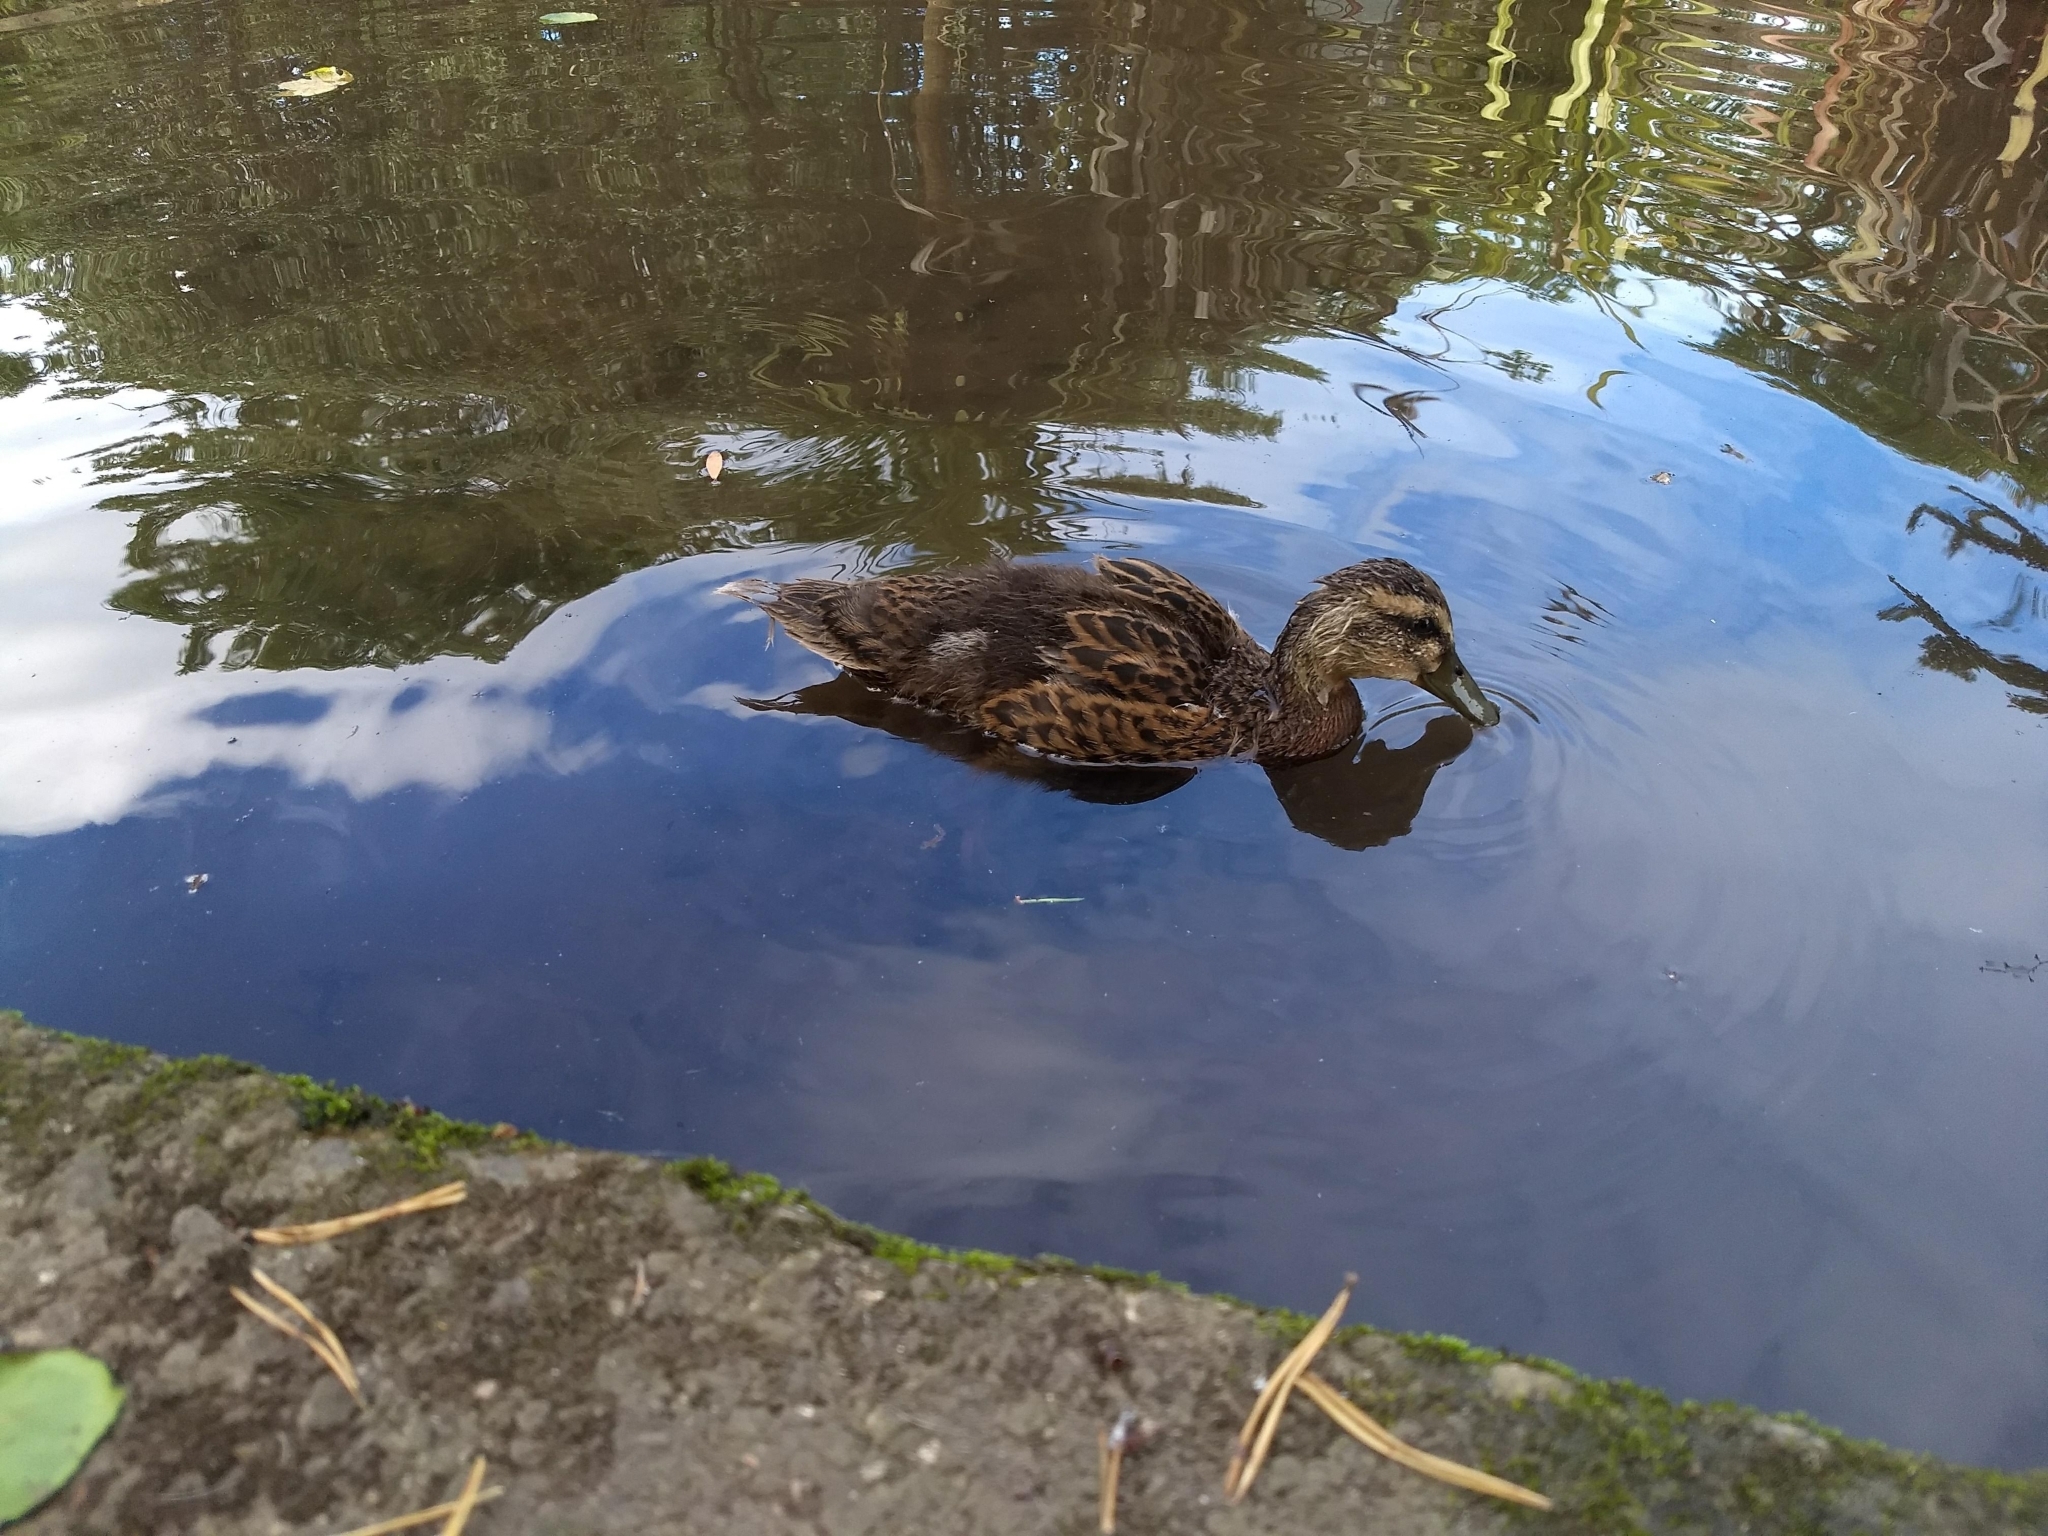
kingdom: Animalia
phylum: Chordata
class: Aves
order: Anseriformes
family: Anatidae
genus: Anas
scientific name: Anas platyrhynchos
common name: Mallard
